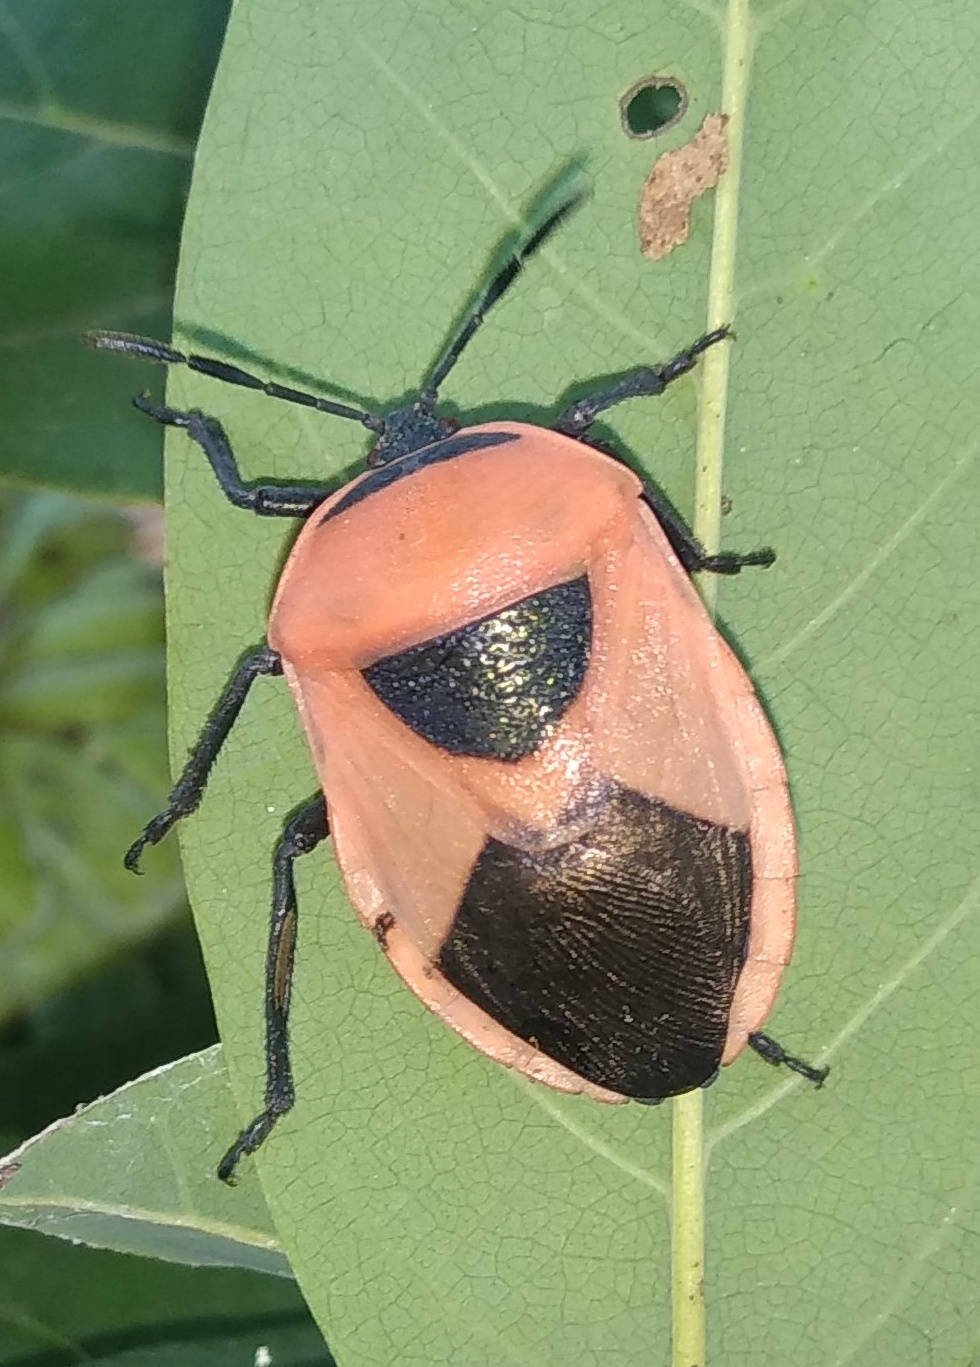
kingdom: Animalia
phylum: Arthropoda
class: Insecta
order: Hemiptera
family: Dinidoridae
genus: Coridius
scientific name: Coridius ianus
